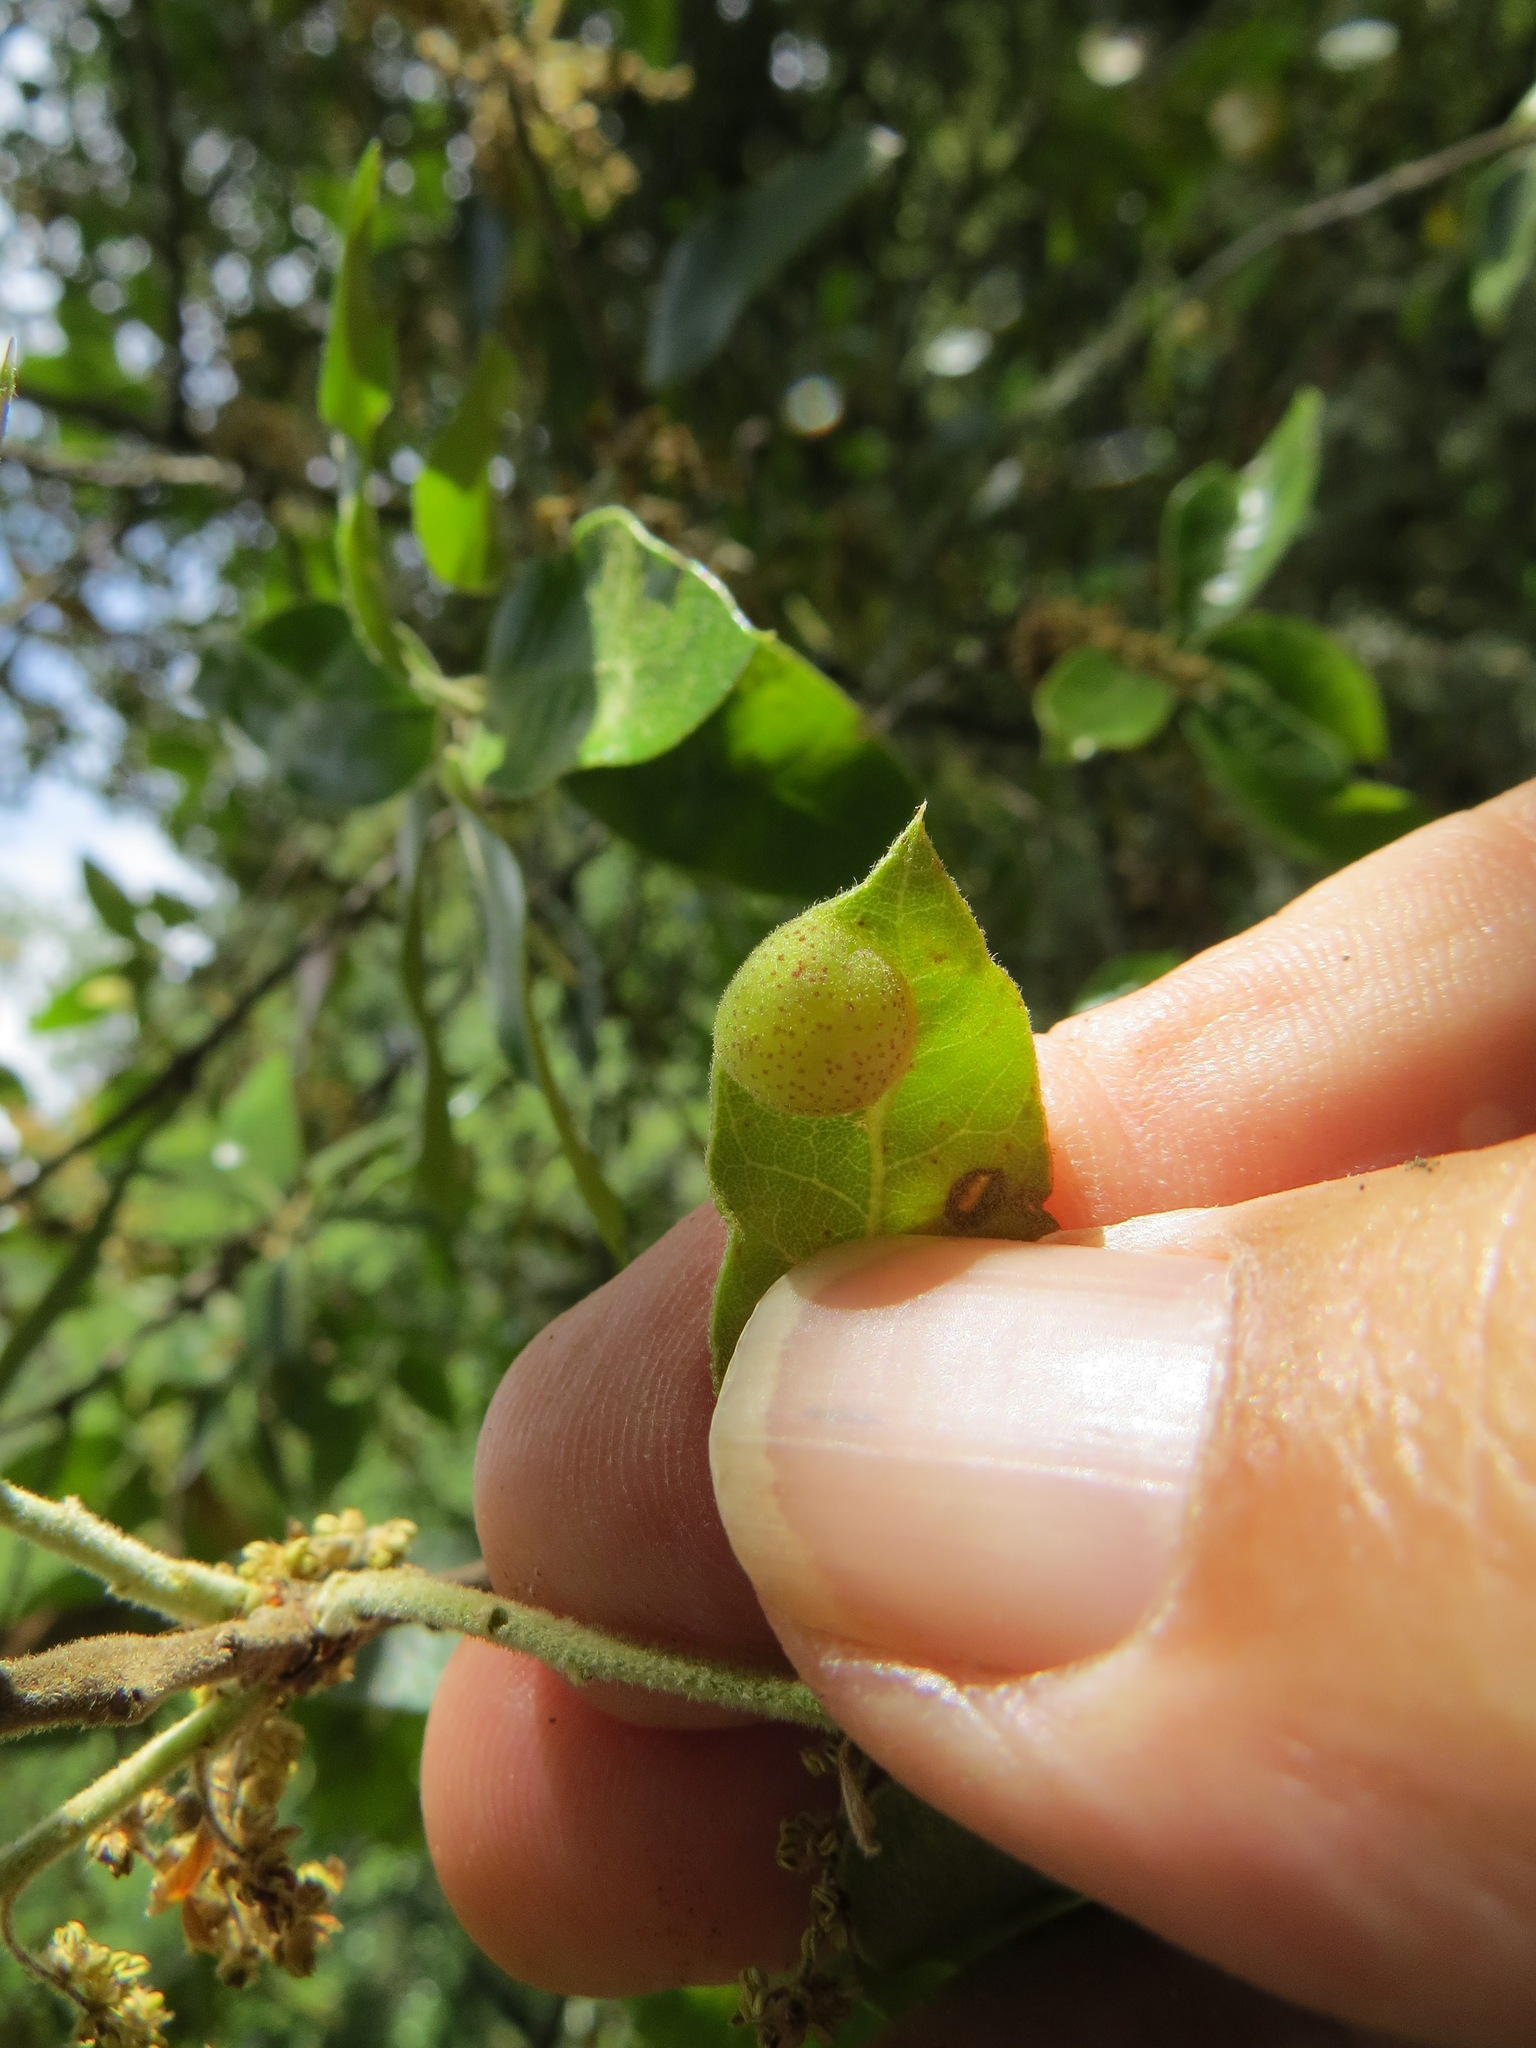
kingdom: Animalia
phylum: Arthropoda
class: Insecta
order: Hymenoptera
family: Cynipidae
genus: Heteroecus
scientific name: Heteroecus
